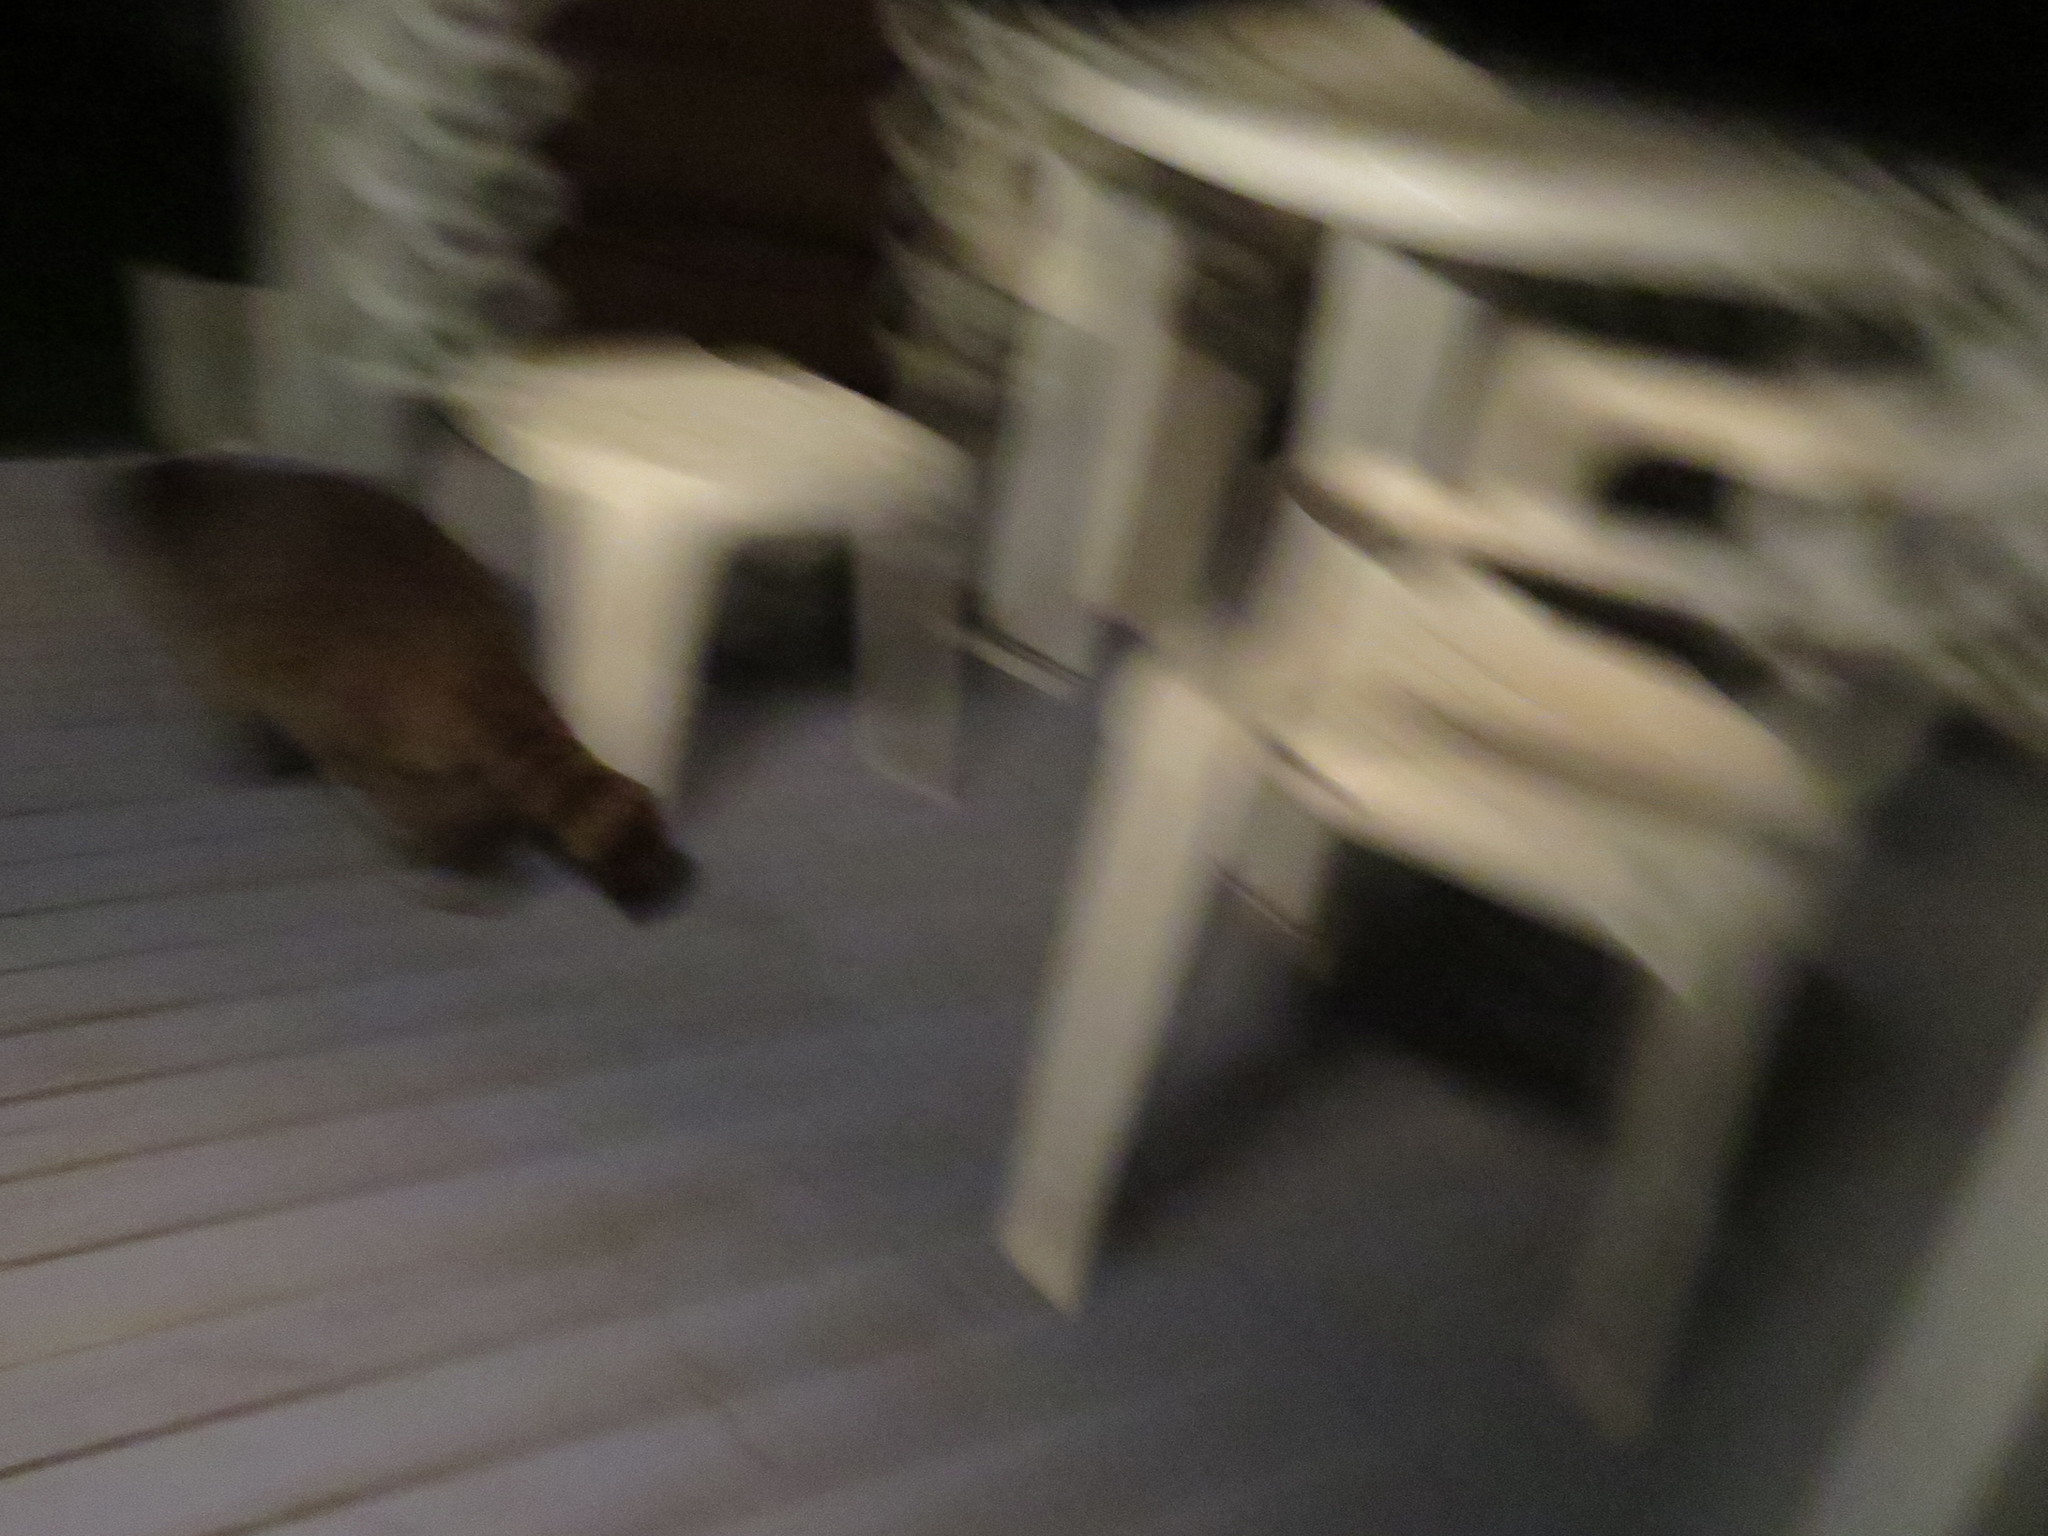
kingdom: Animalia
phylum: Chordata
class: Mammalia
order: Carnivora
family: Procyonidae
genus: Procyon
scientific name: Procyon lotor
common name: Raccoon
